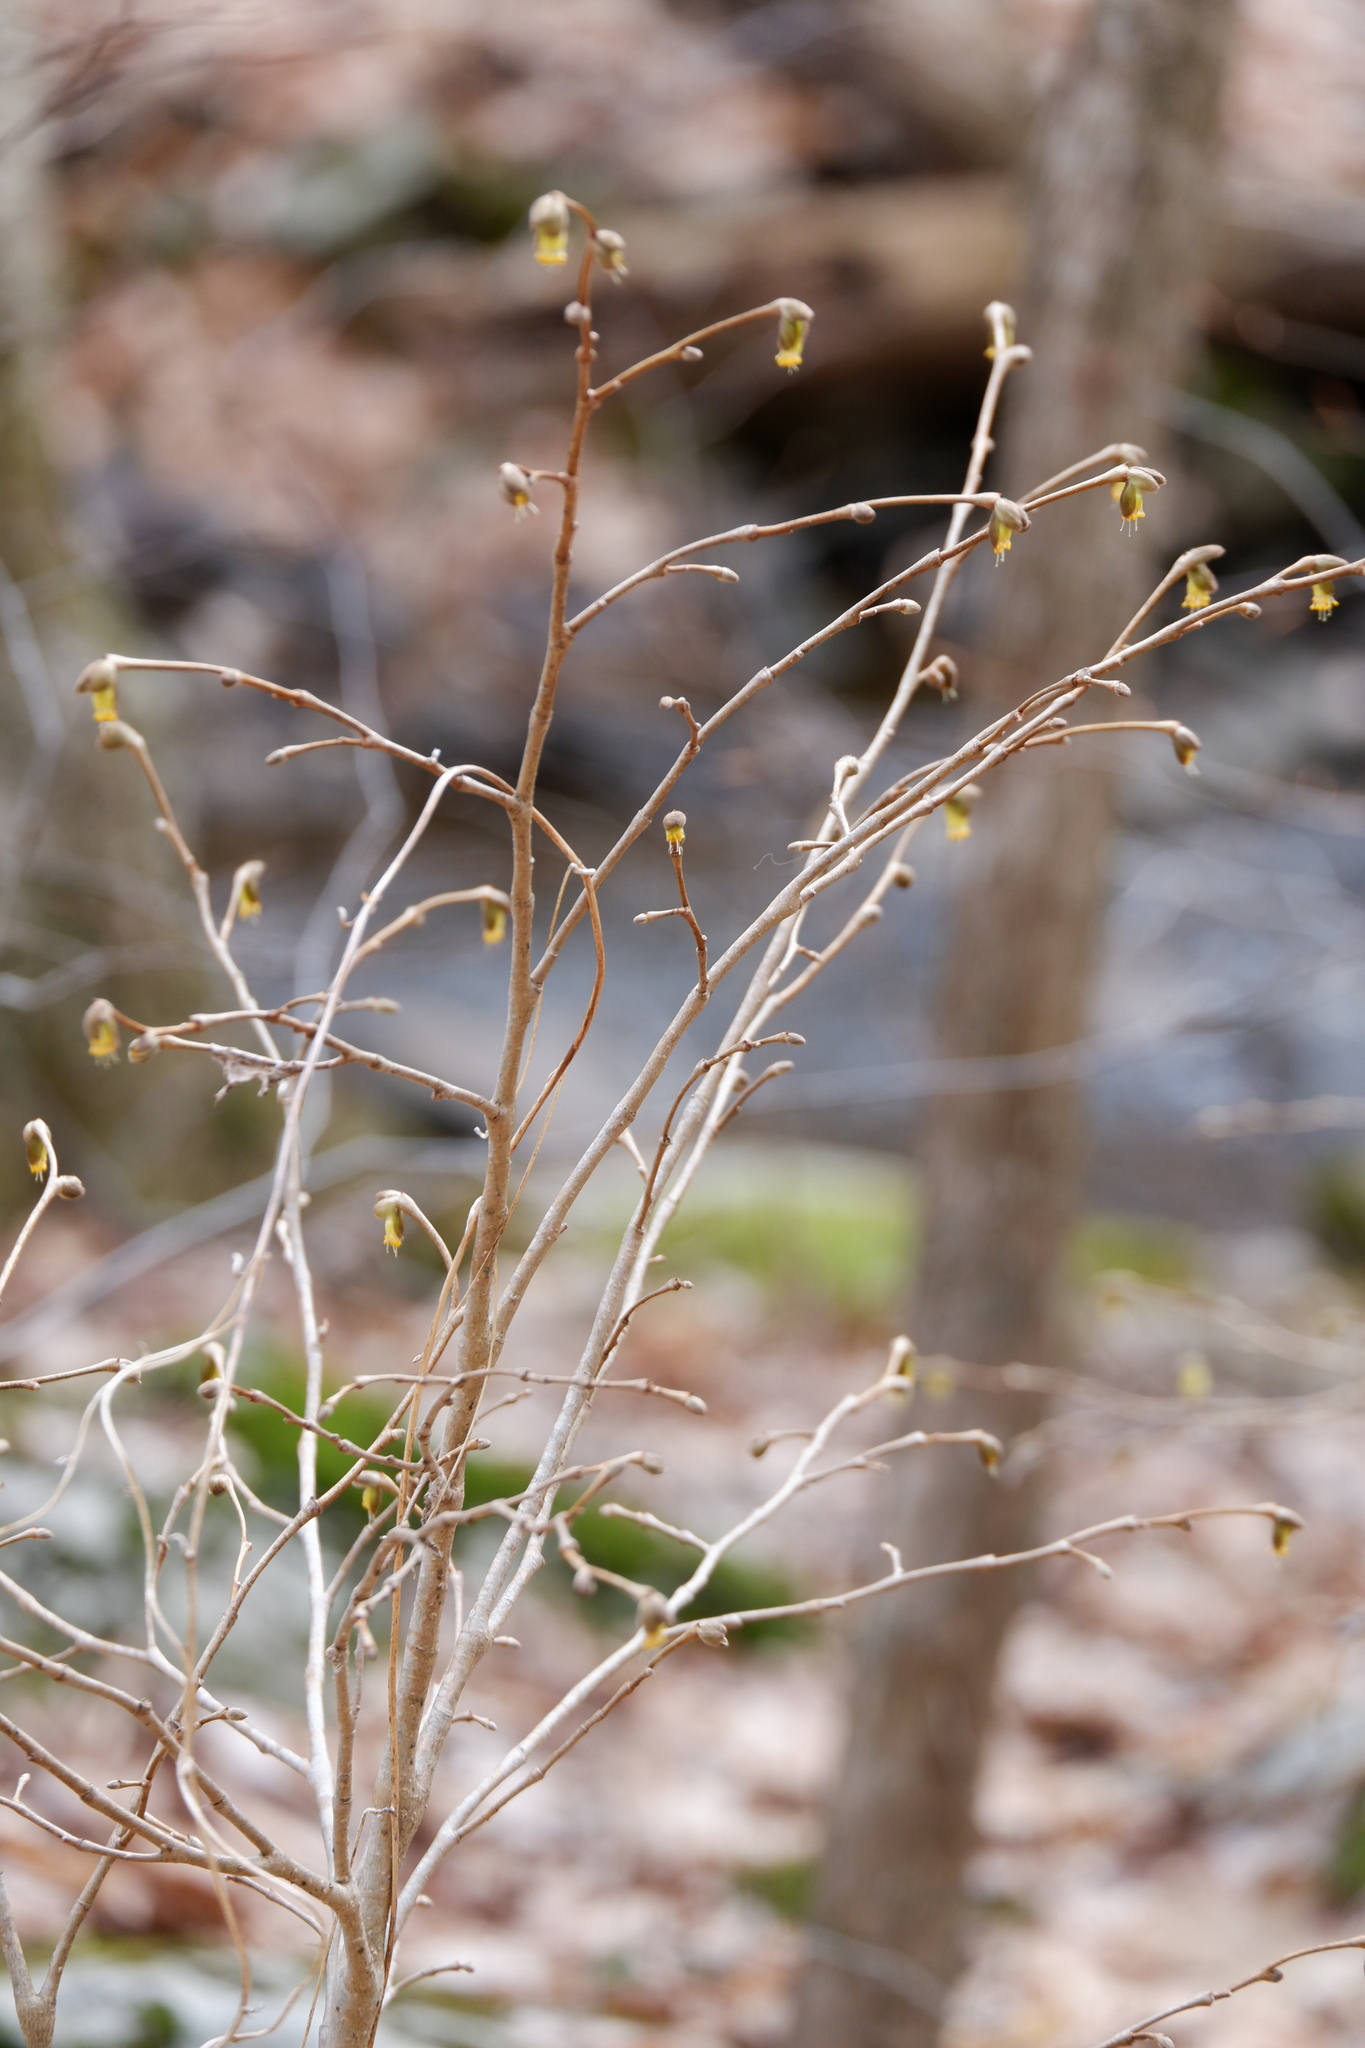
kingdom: Plantae
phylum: Tracheophyta
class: Magnoliopsida
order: Malvales
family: Thymelaeaceae
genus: Dirca
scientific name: Dirca palustris
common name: Leatherwood
